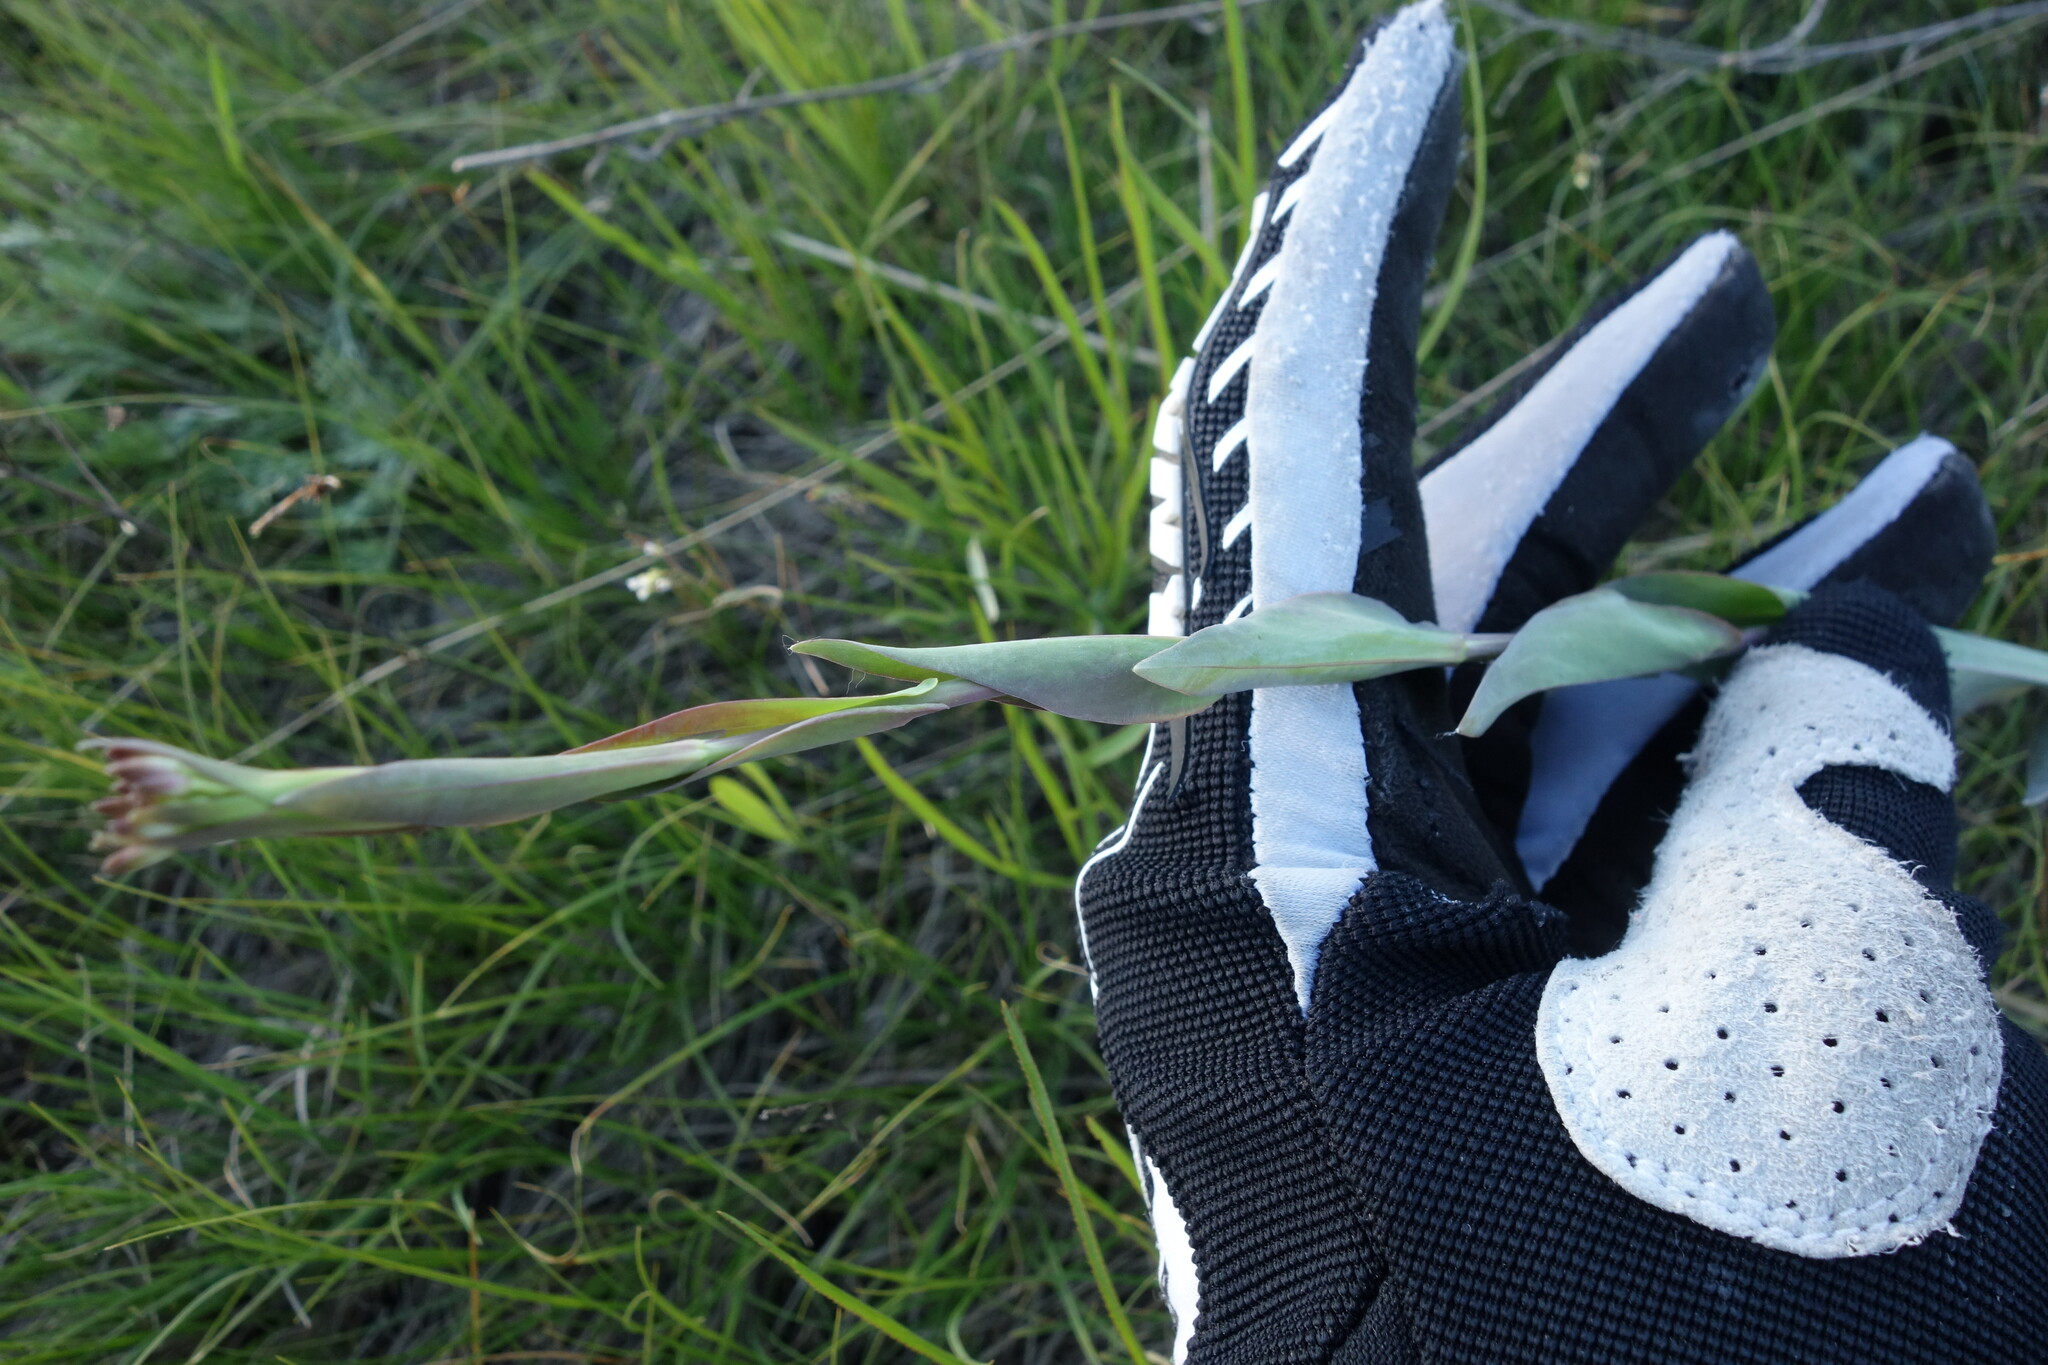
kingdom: Plantae
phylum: Tracheophyta
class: Magnoliopsida
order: Brassicales
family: Brassicaceae
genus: Turritis
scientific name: Turritis glabra
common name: Tower rockcress
